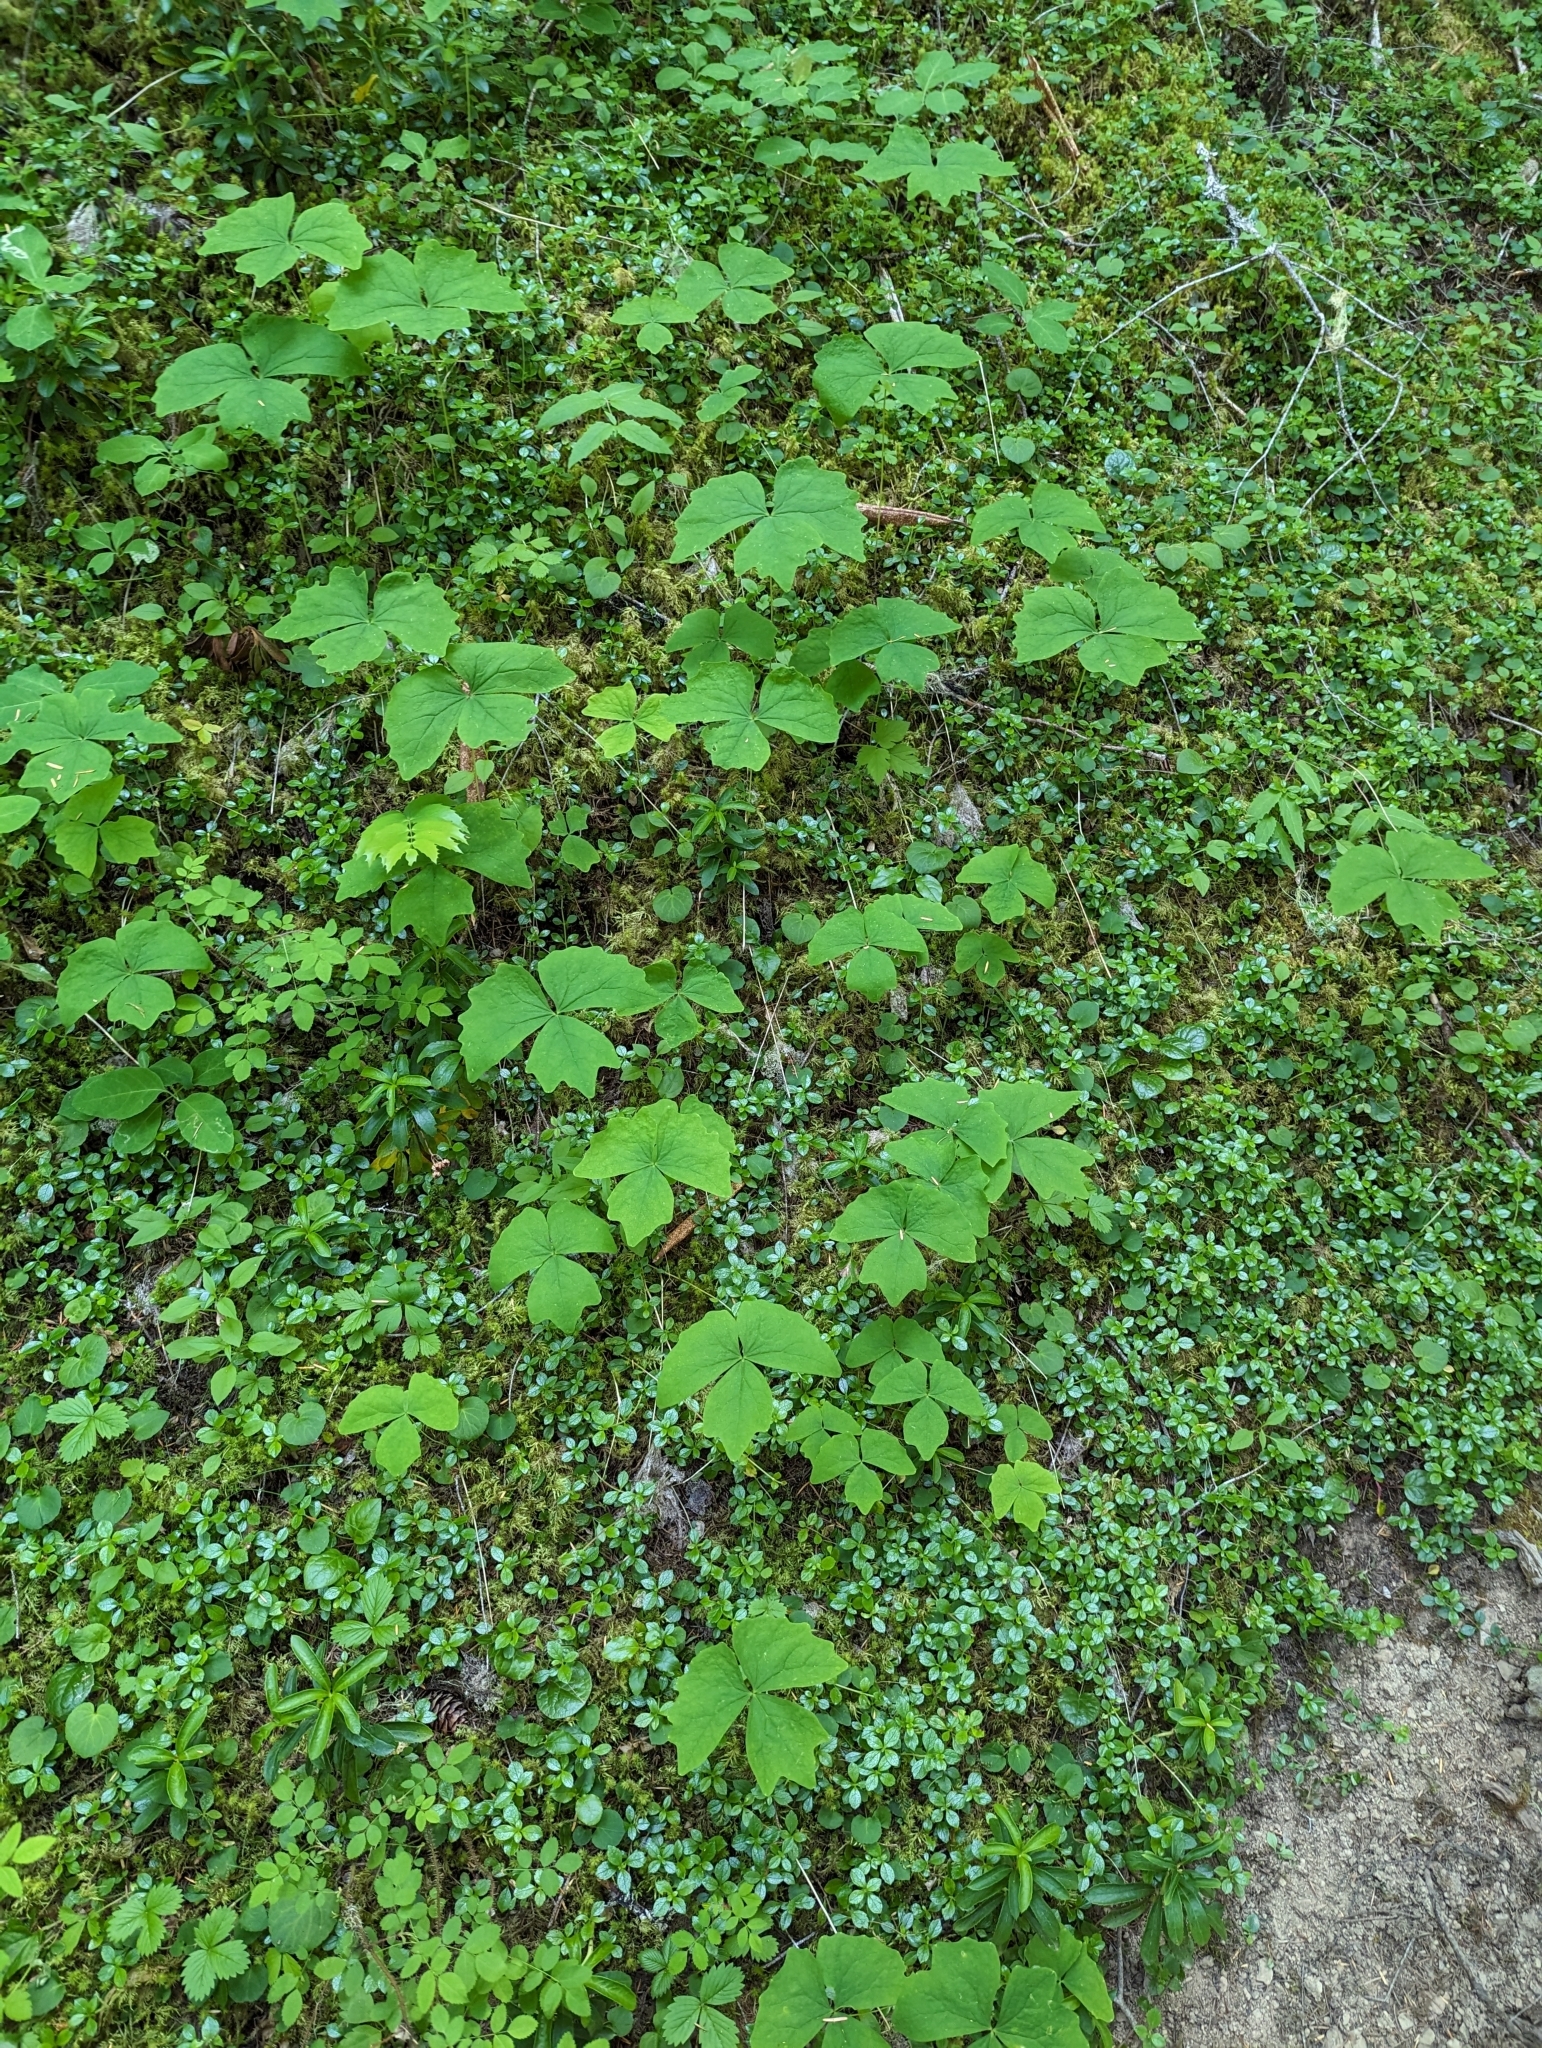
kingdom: Plantae
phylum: Tracheophyta
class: Magnoliopsida
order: Ranunculales
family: Berberidaceae
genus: Achlys
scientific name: Achlys triphylla
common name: Vanilla-leaf
